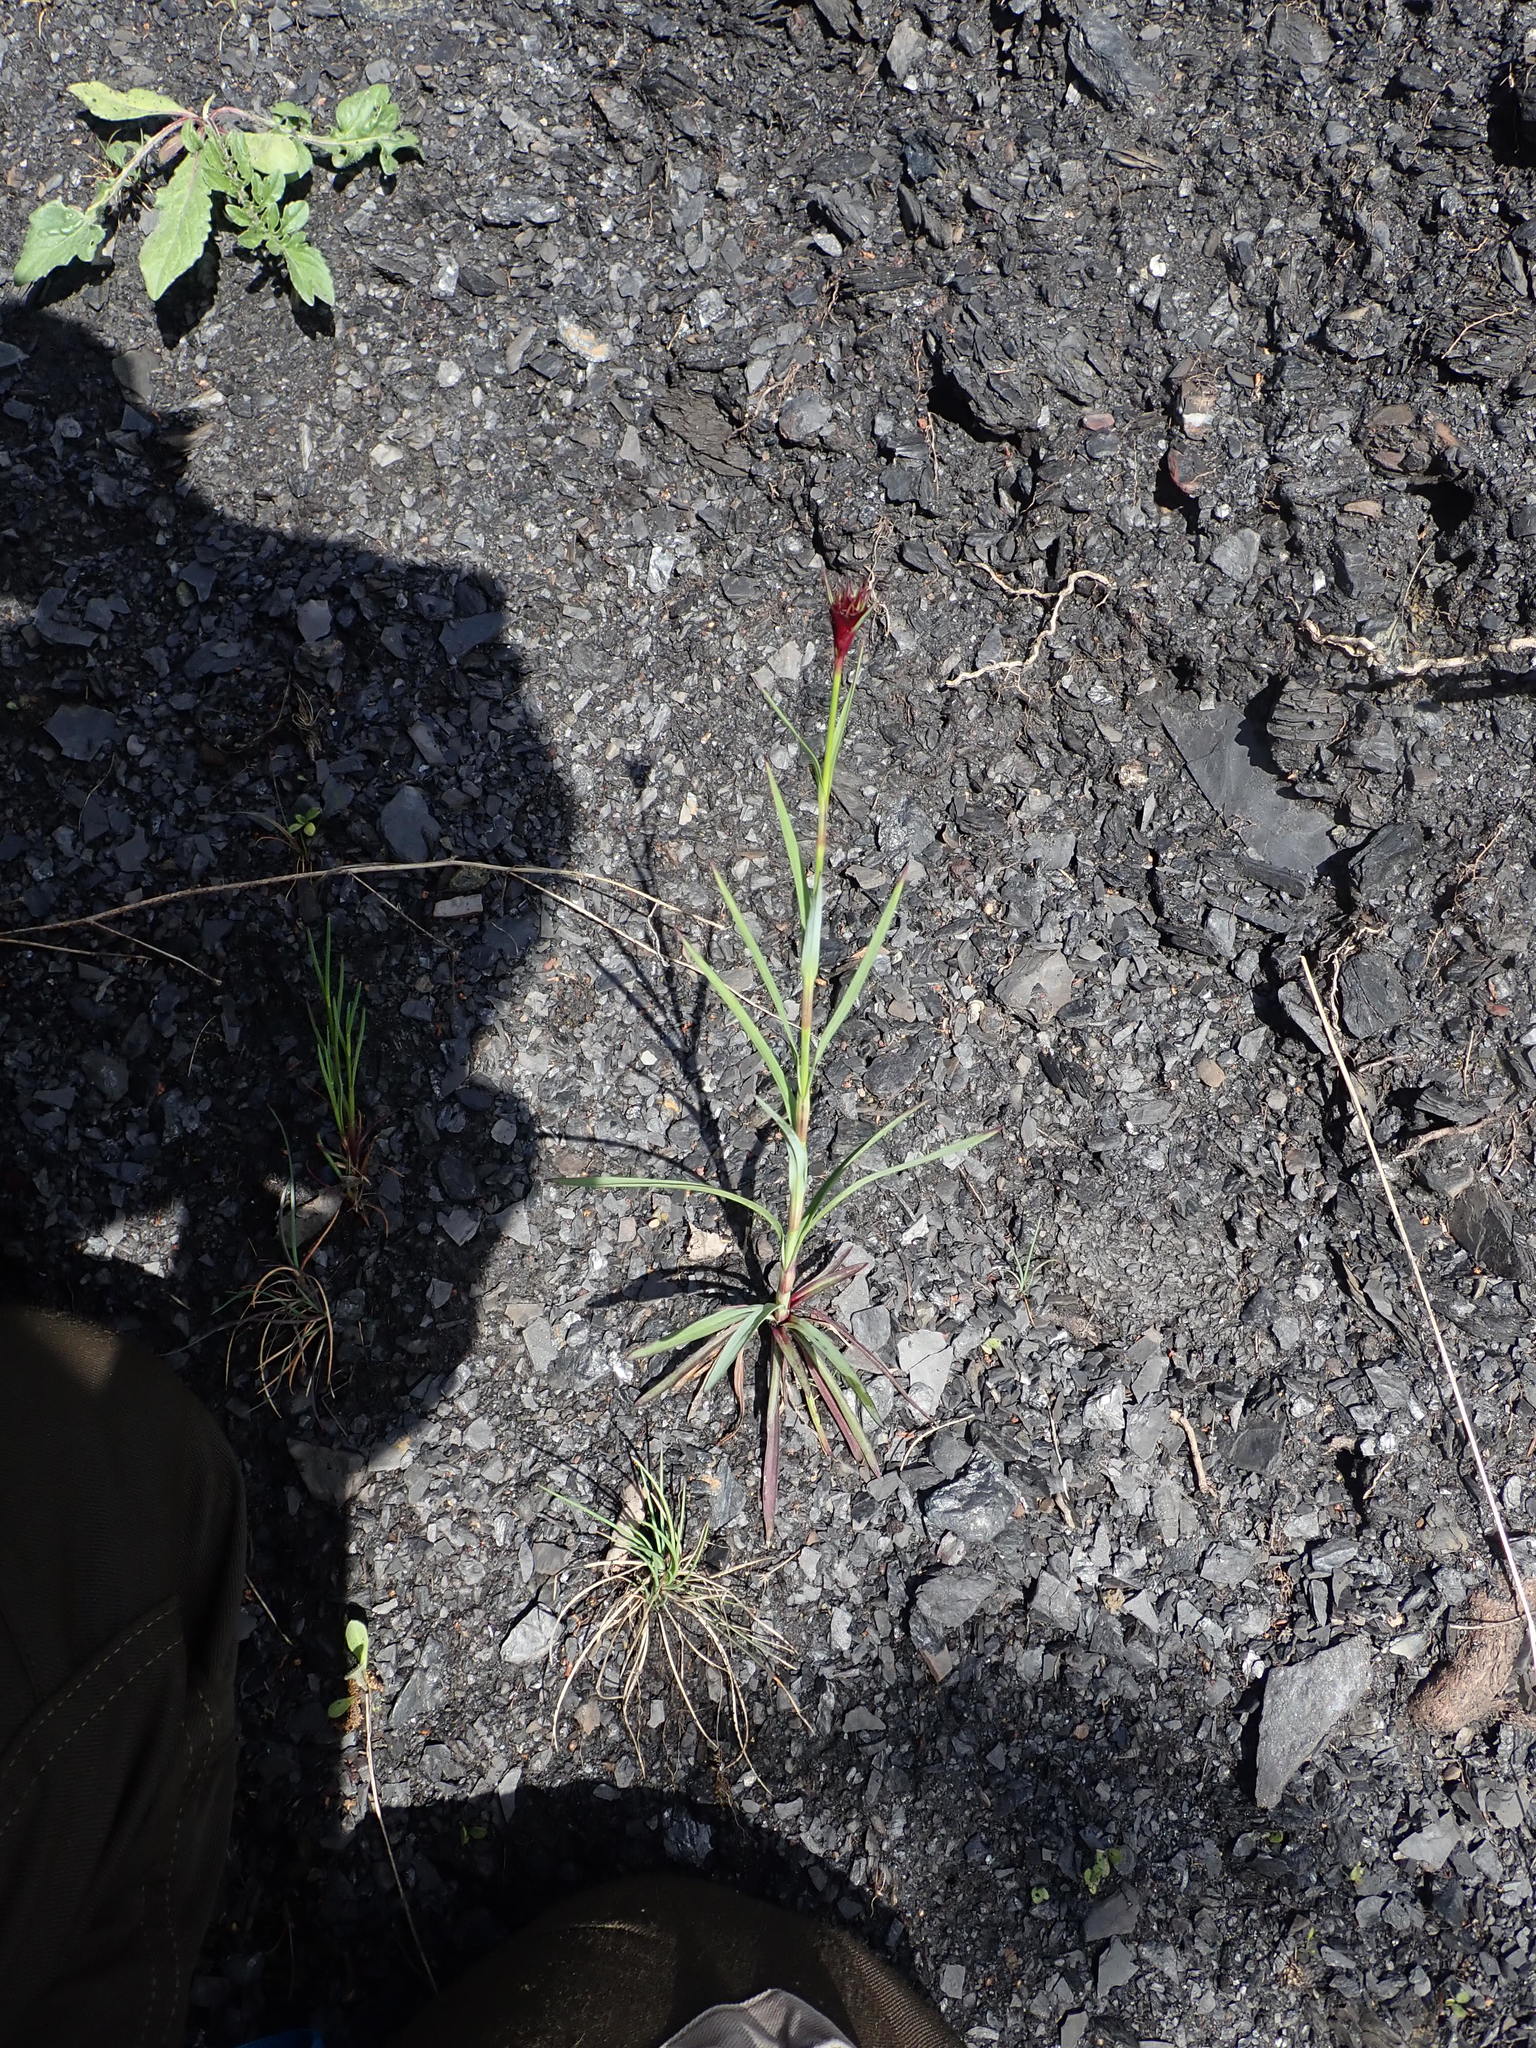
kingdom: Plantae
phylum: Tracheophyta
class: Magnoliopsida
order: Caryophyllales
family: Caryophyllaceae
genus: Dianthus
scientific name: Dianthus
